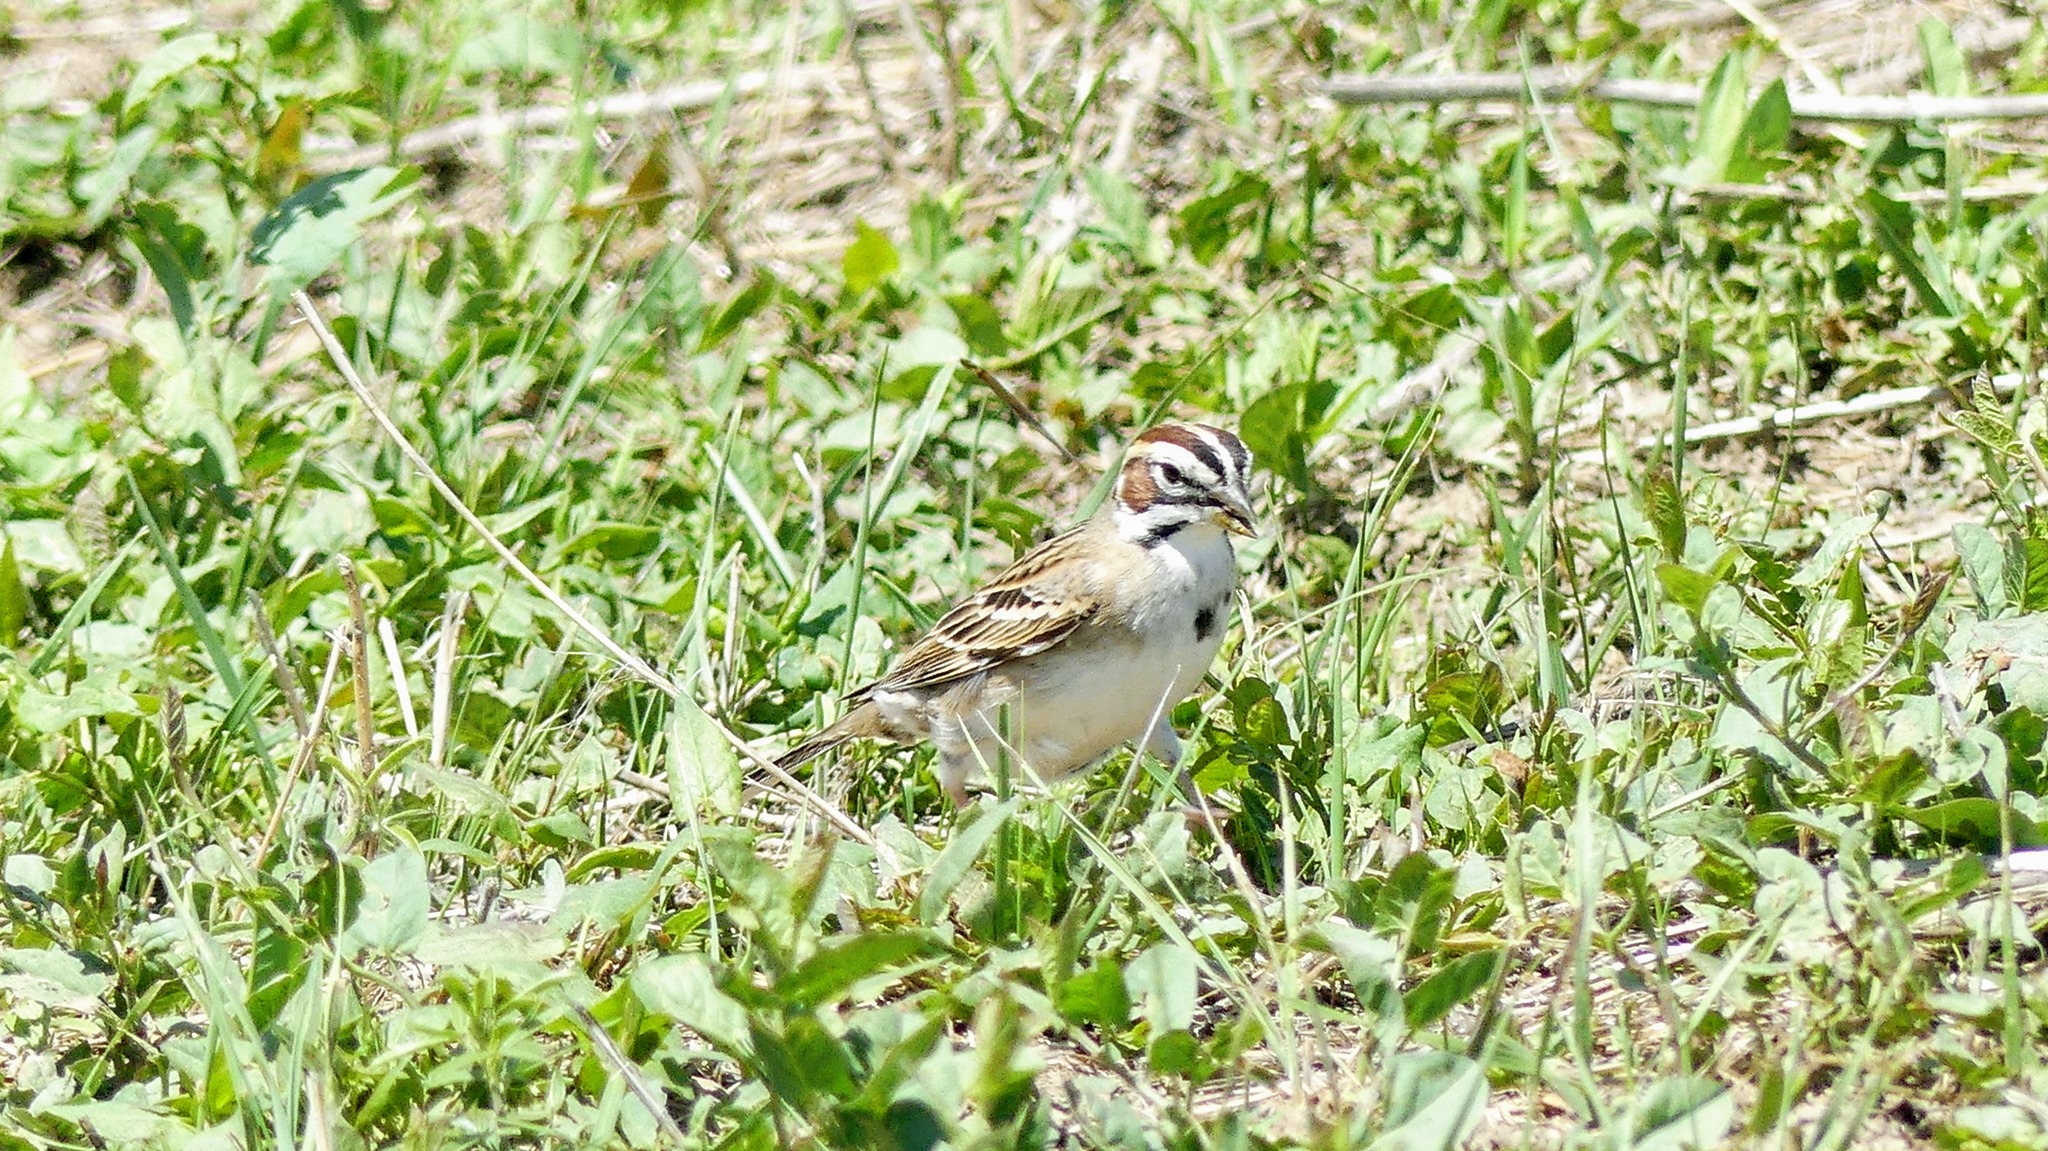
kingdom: Animalia
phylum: Chordata
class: Aves
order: Passeriformes
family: Passerellidae
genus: Chondestes
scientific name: Chondestes grammacus
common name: Lark sparrow
